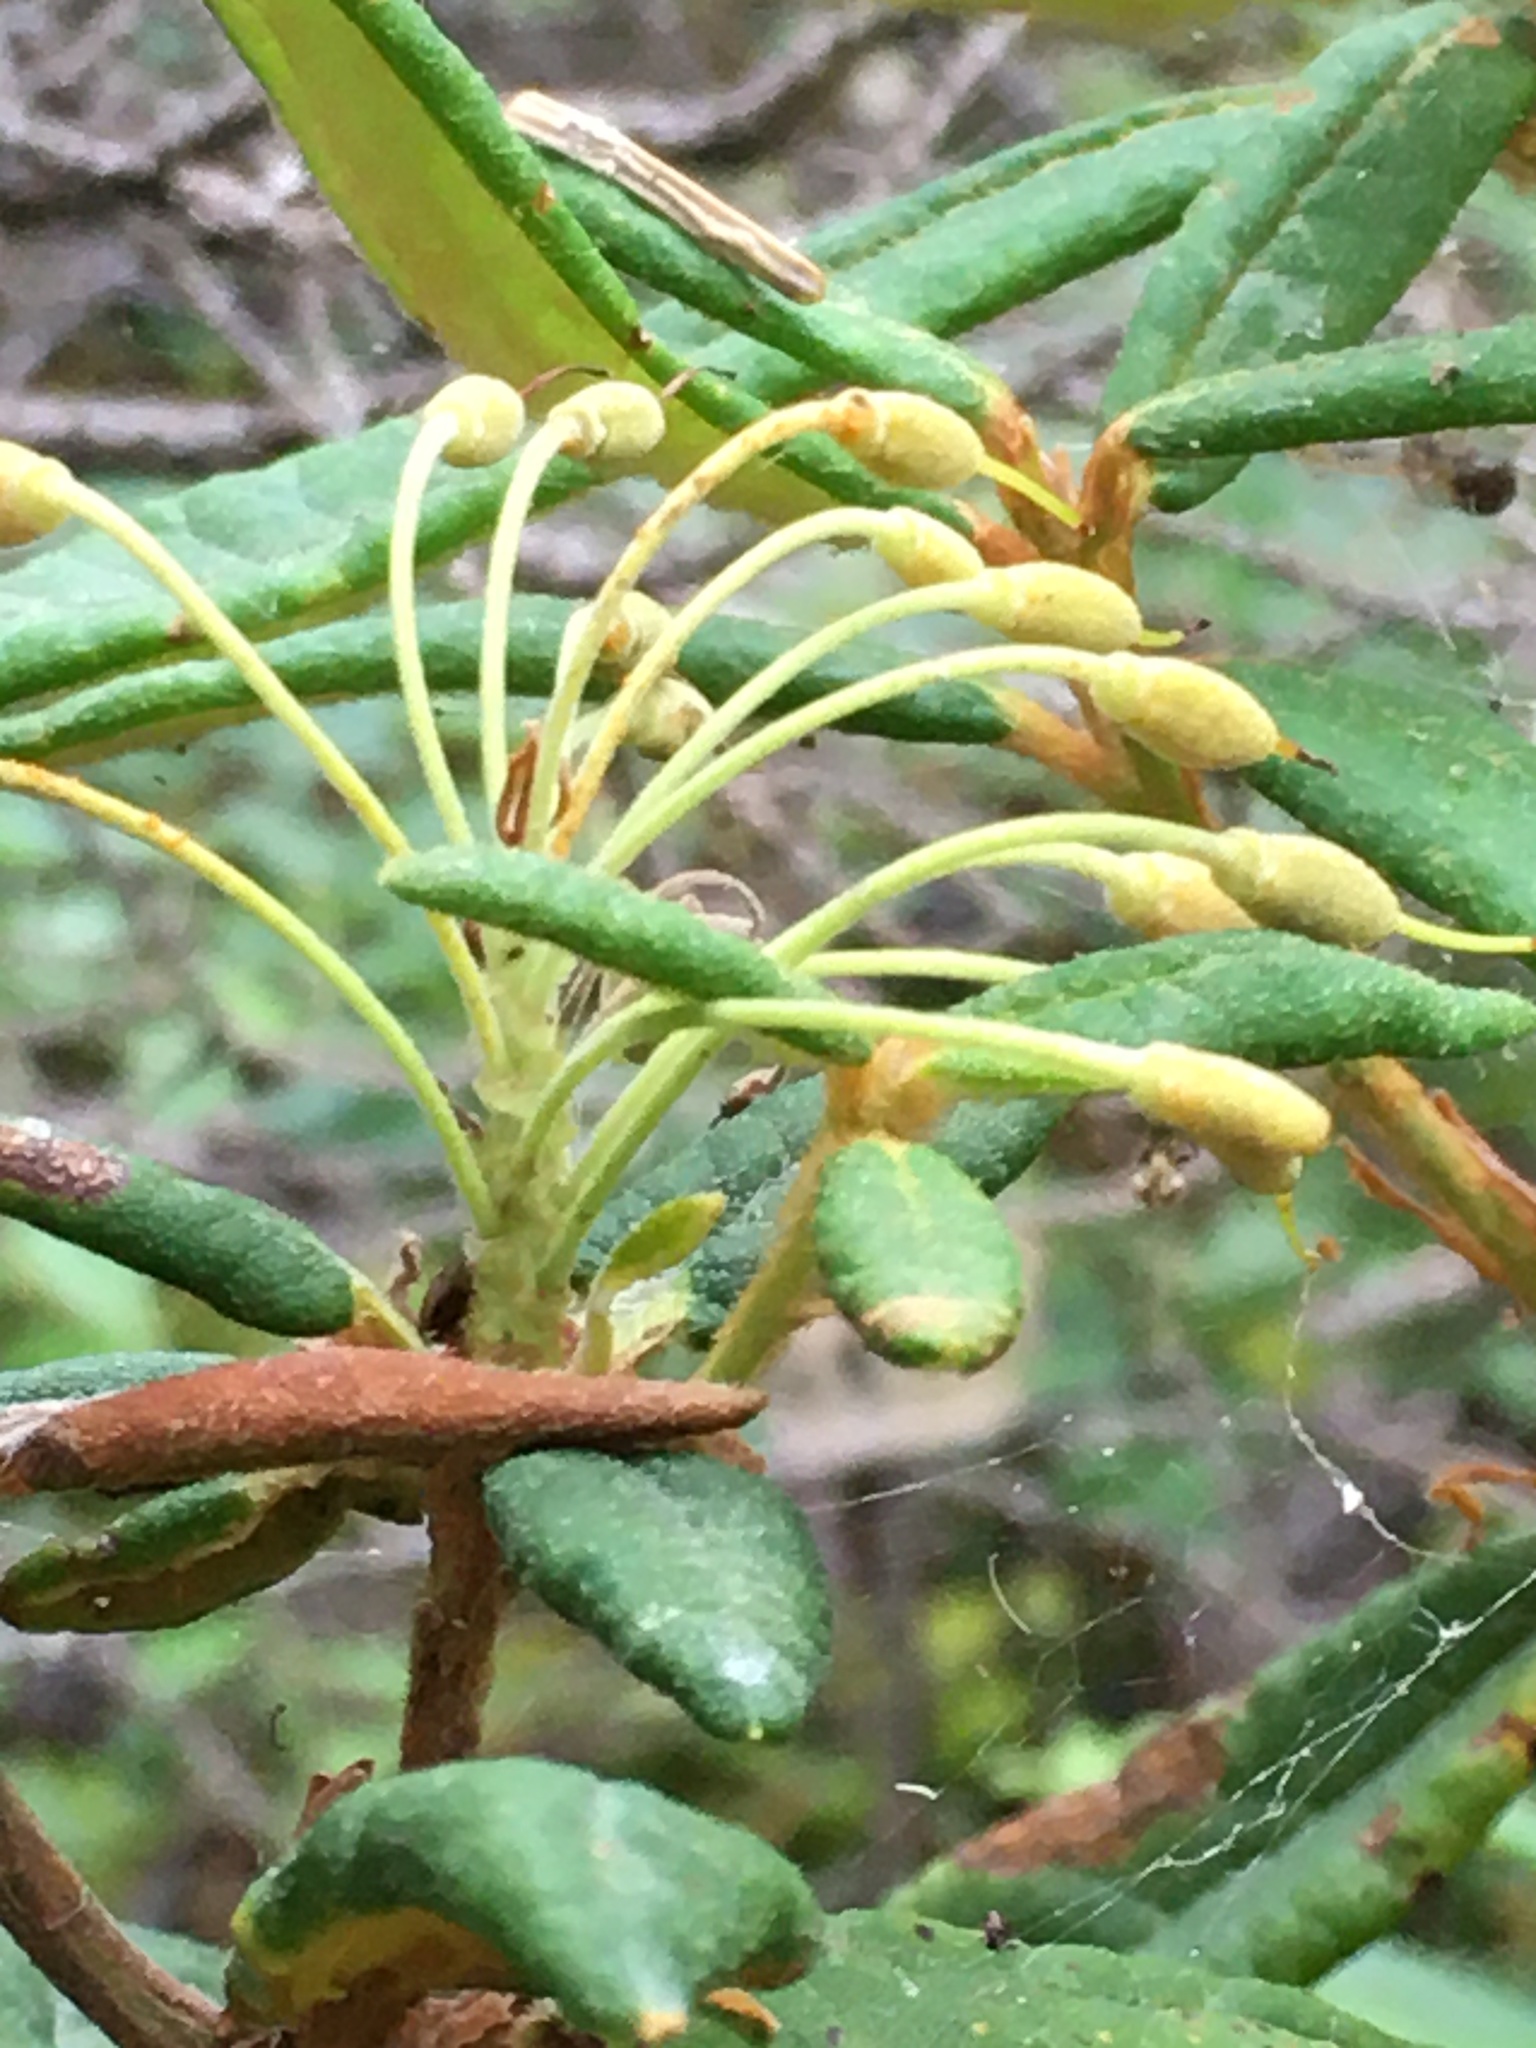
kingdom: Plantae
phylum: Tracheophyta
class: Magnoliopsida
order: Ericales
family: Ericaceae
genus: Rhododendron
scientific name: Rhododendron groenlandicum
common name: Bog labrador tea
